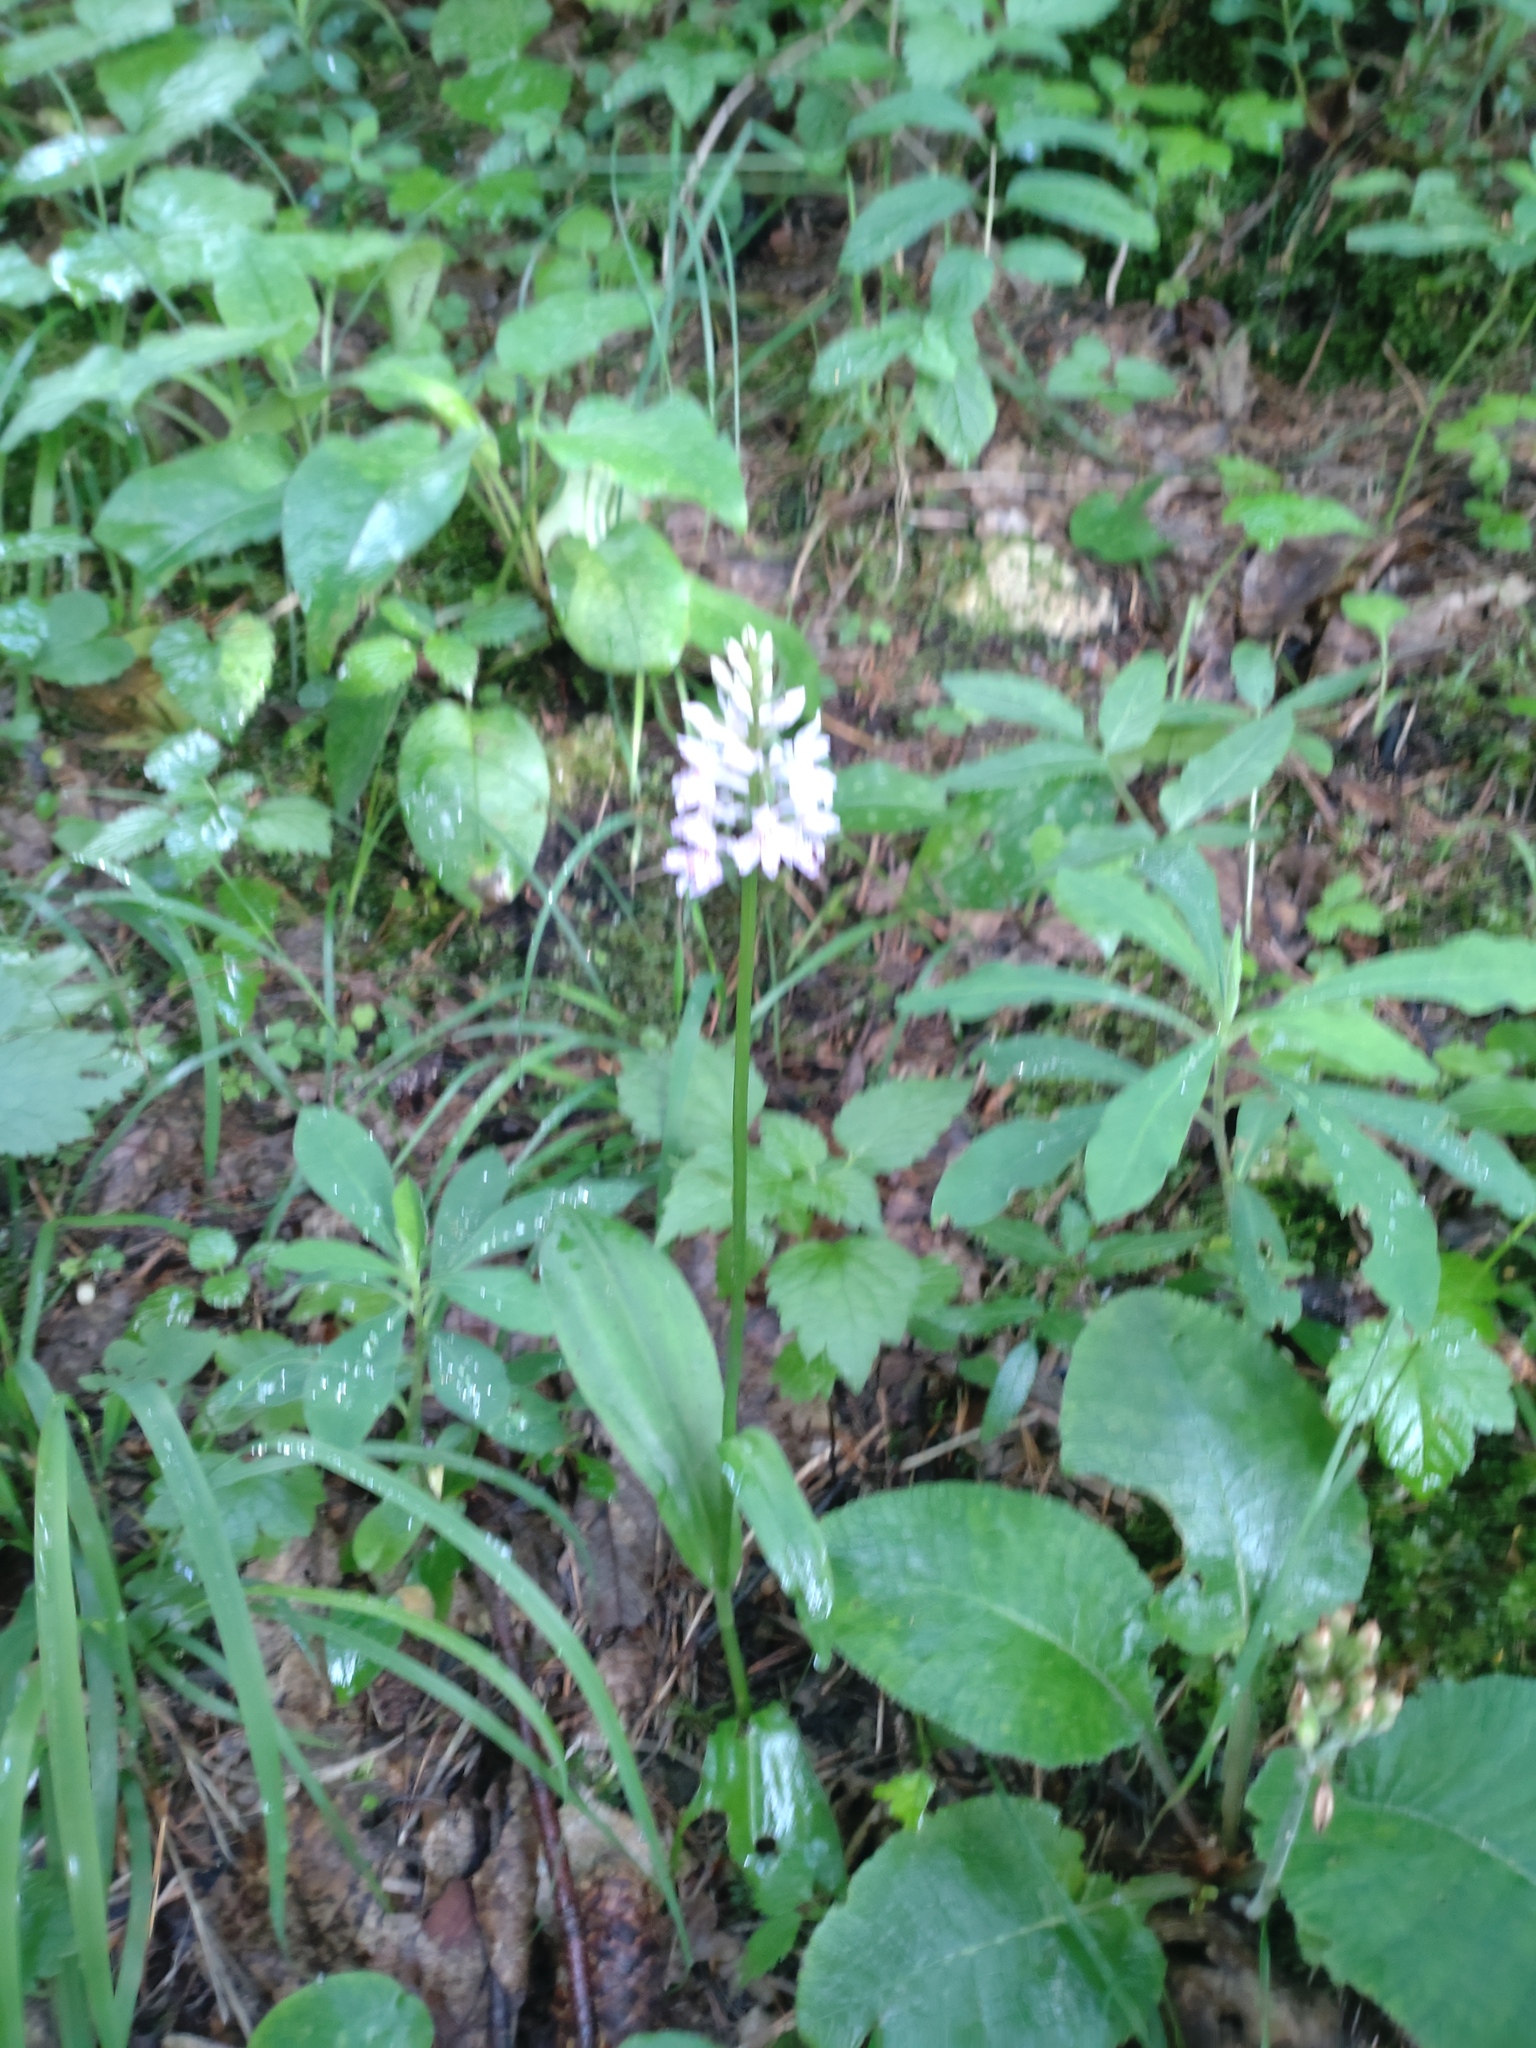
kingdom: Plantae
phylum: Tracheophyta
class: Liliopsida
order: Asparagales
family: Orchidaceae
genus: Dactylorhiza
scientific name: Dactylorhiza maculata
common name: Heath spotted-orchid
